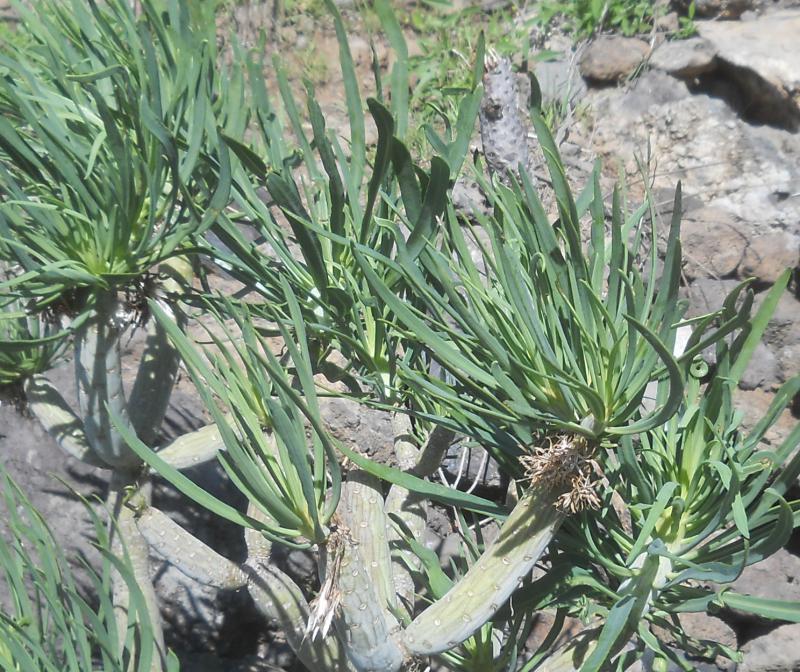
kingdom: Plantae
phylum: Tracheophyta
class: Magnoliopsida
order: Asterales
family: Asteraceae
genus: Kleinia
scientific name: Kleinia neriifolia
